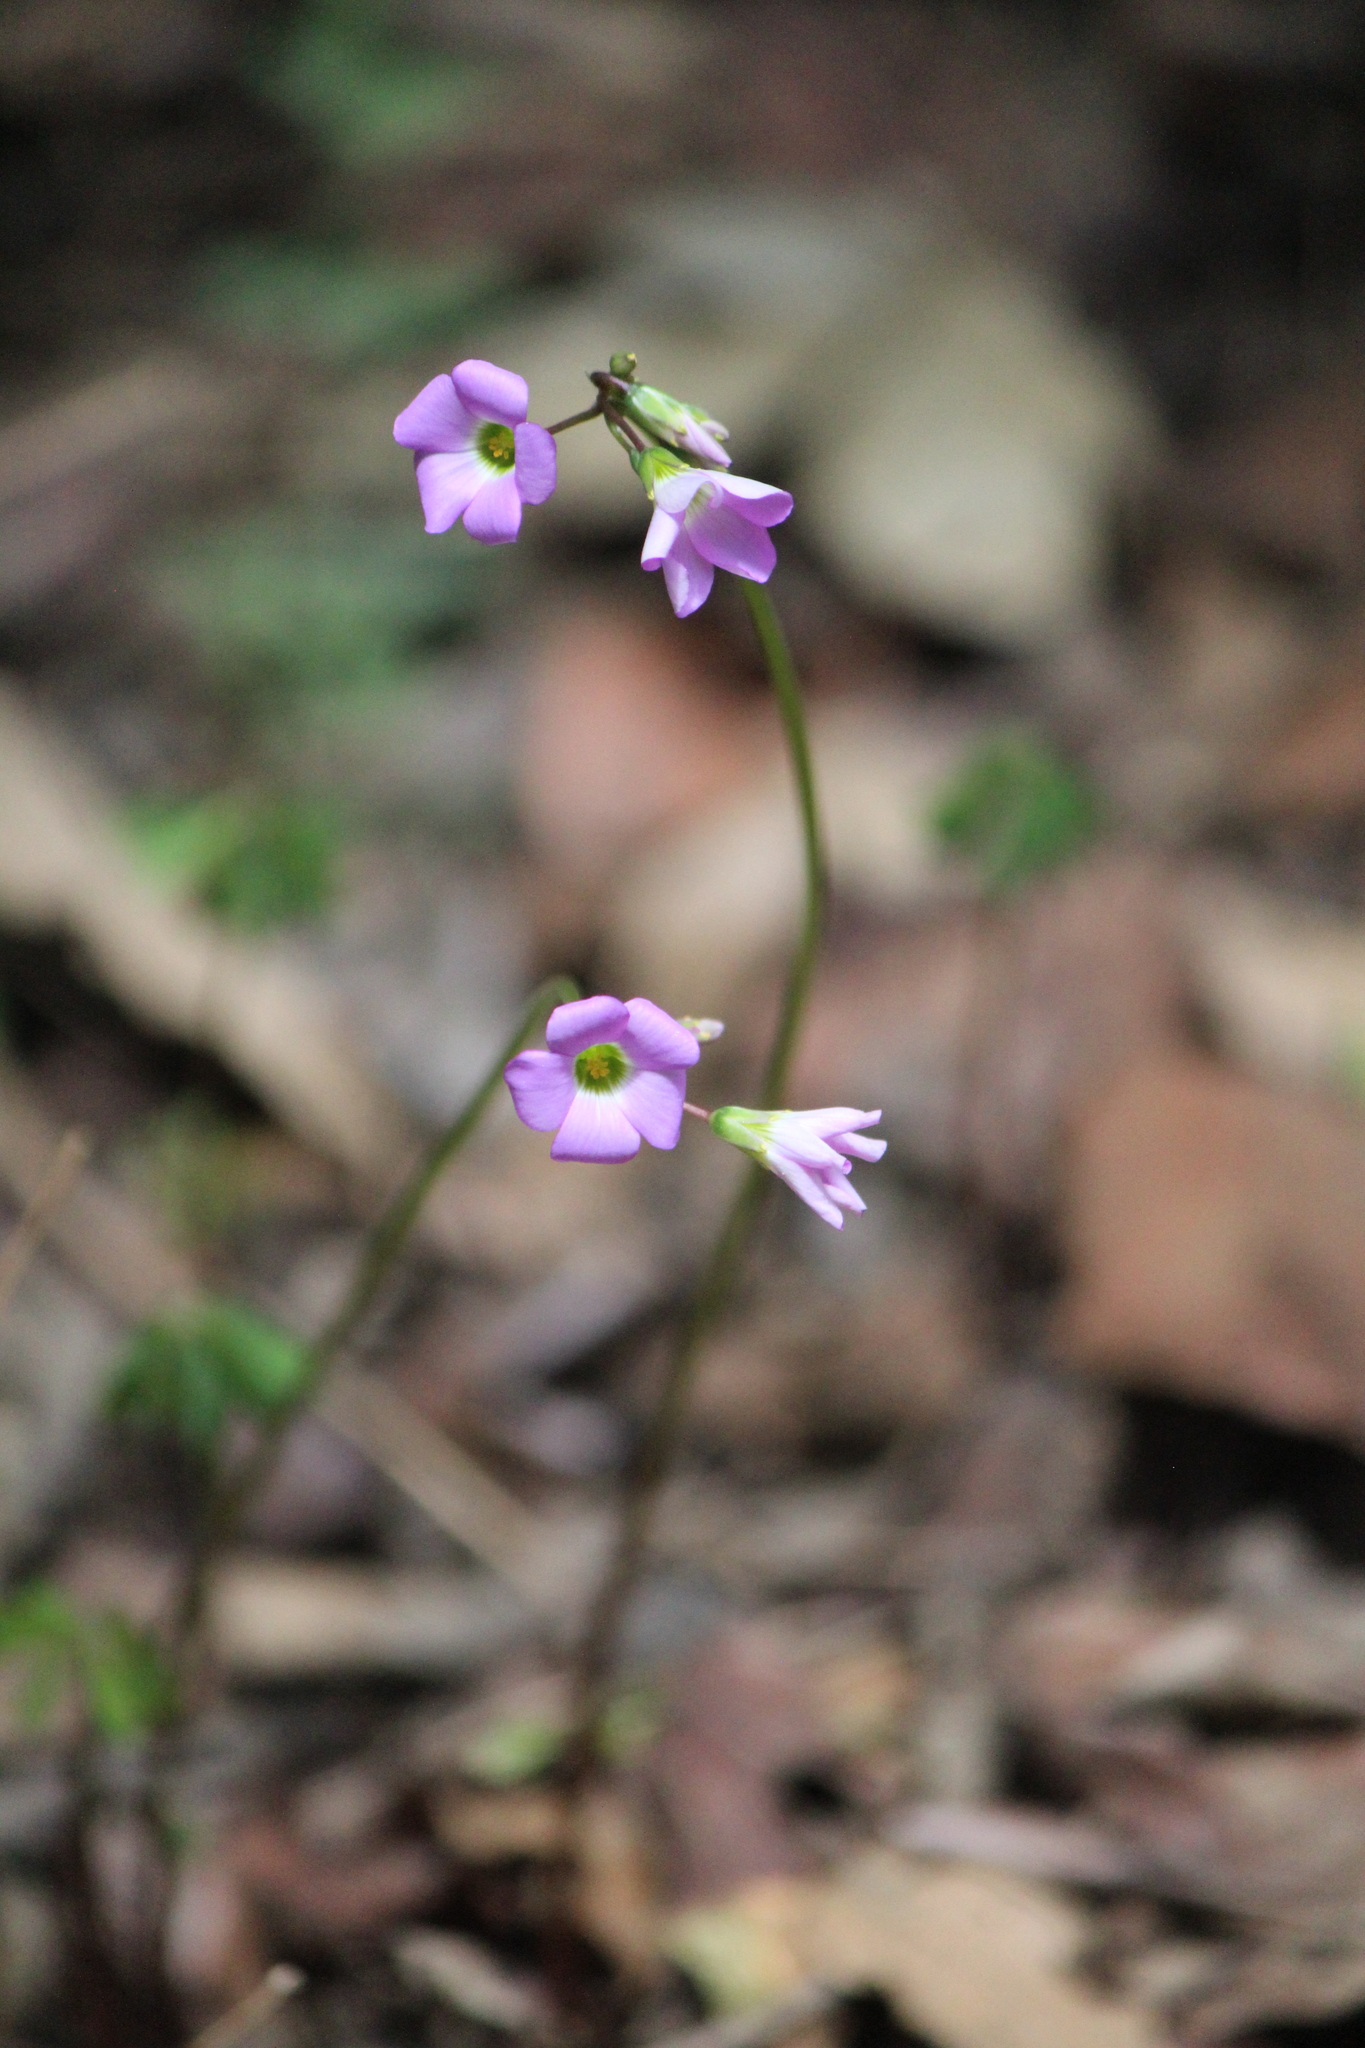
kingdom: Plantae
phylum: Tracheophyta
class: Magnoliopsida
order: Oxalidales
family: Oxalidaceae
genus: Oxalis
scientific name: Oxalis decaphylla
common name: Ten-leaved pink-sorrel
